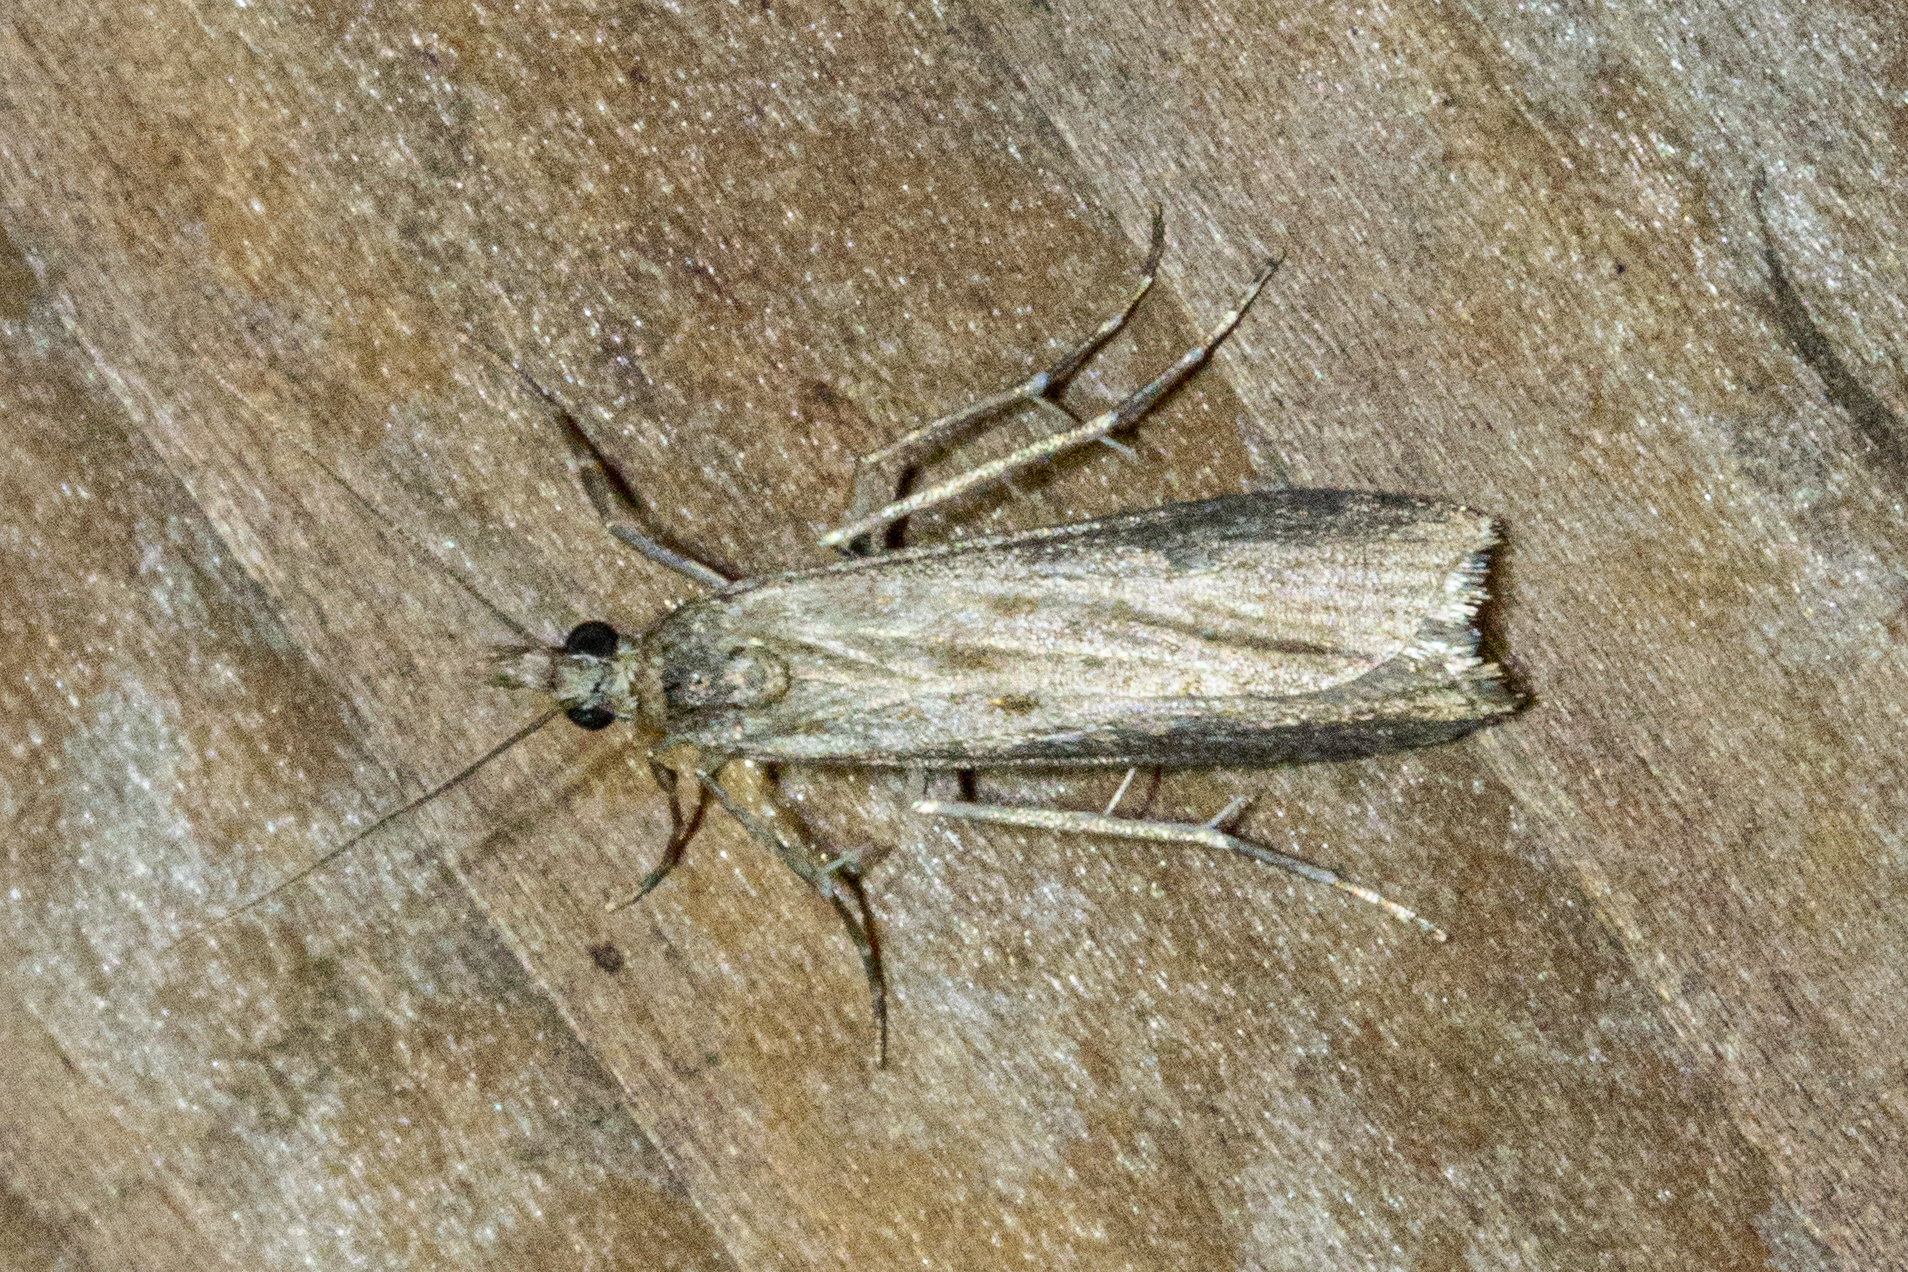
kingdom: Animalia
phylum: Arthropoda
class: Insecta
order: Lepidoptera
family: Crambidae
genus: Eudonia
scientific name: Eudonia leptalea
